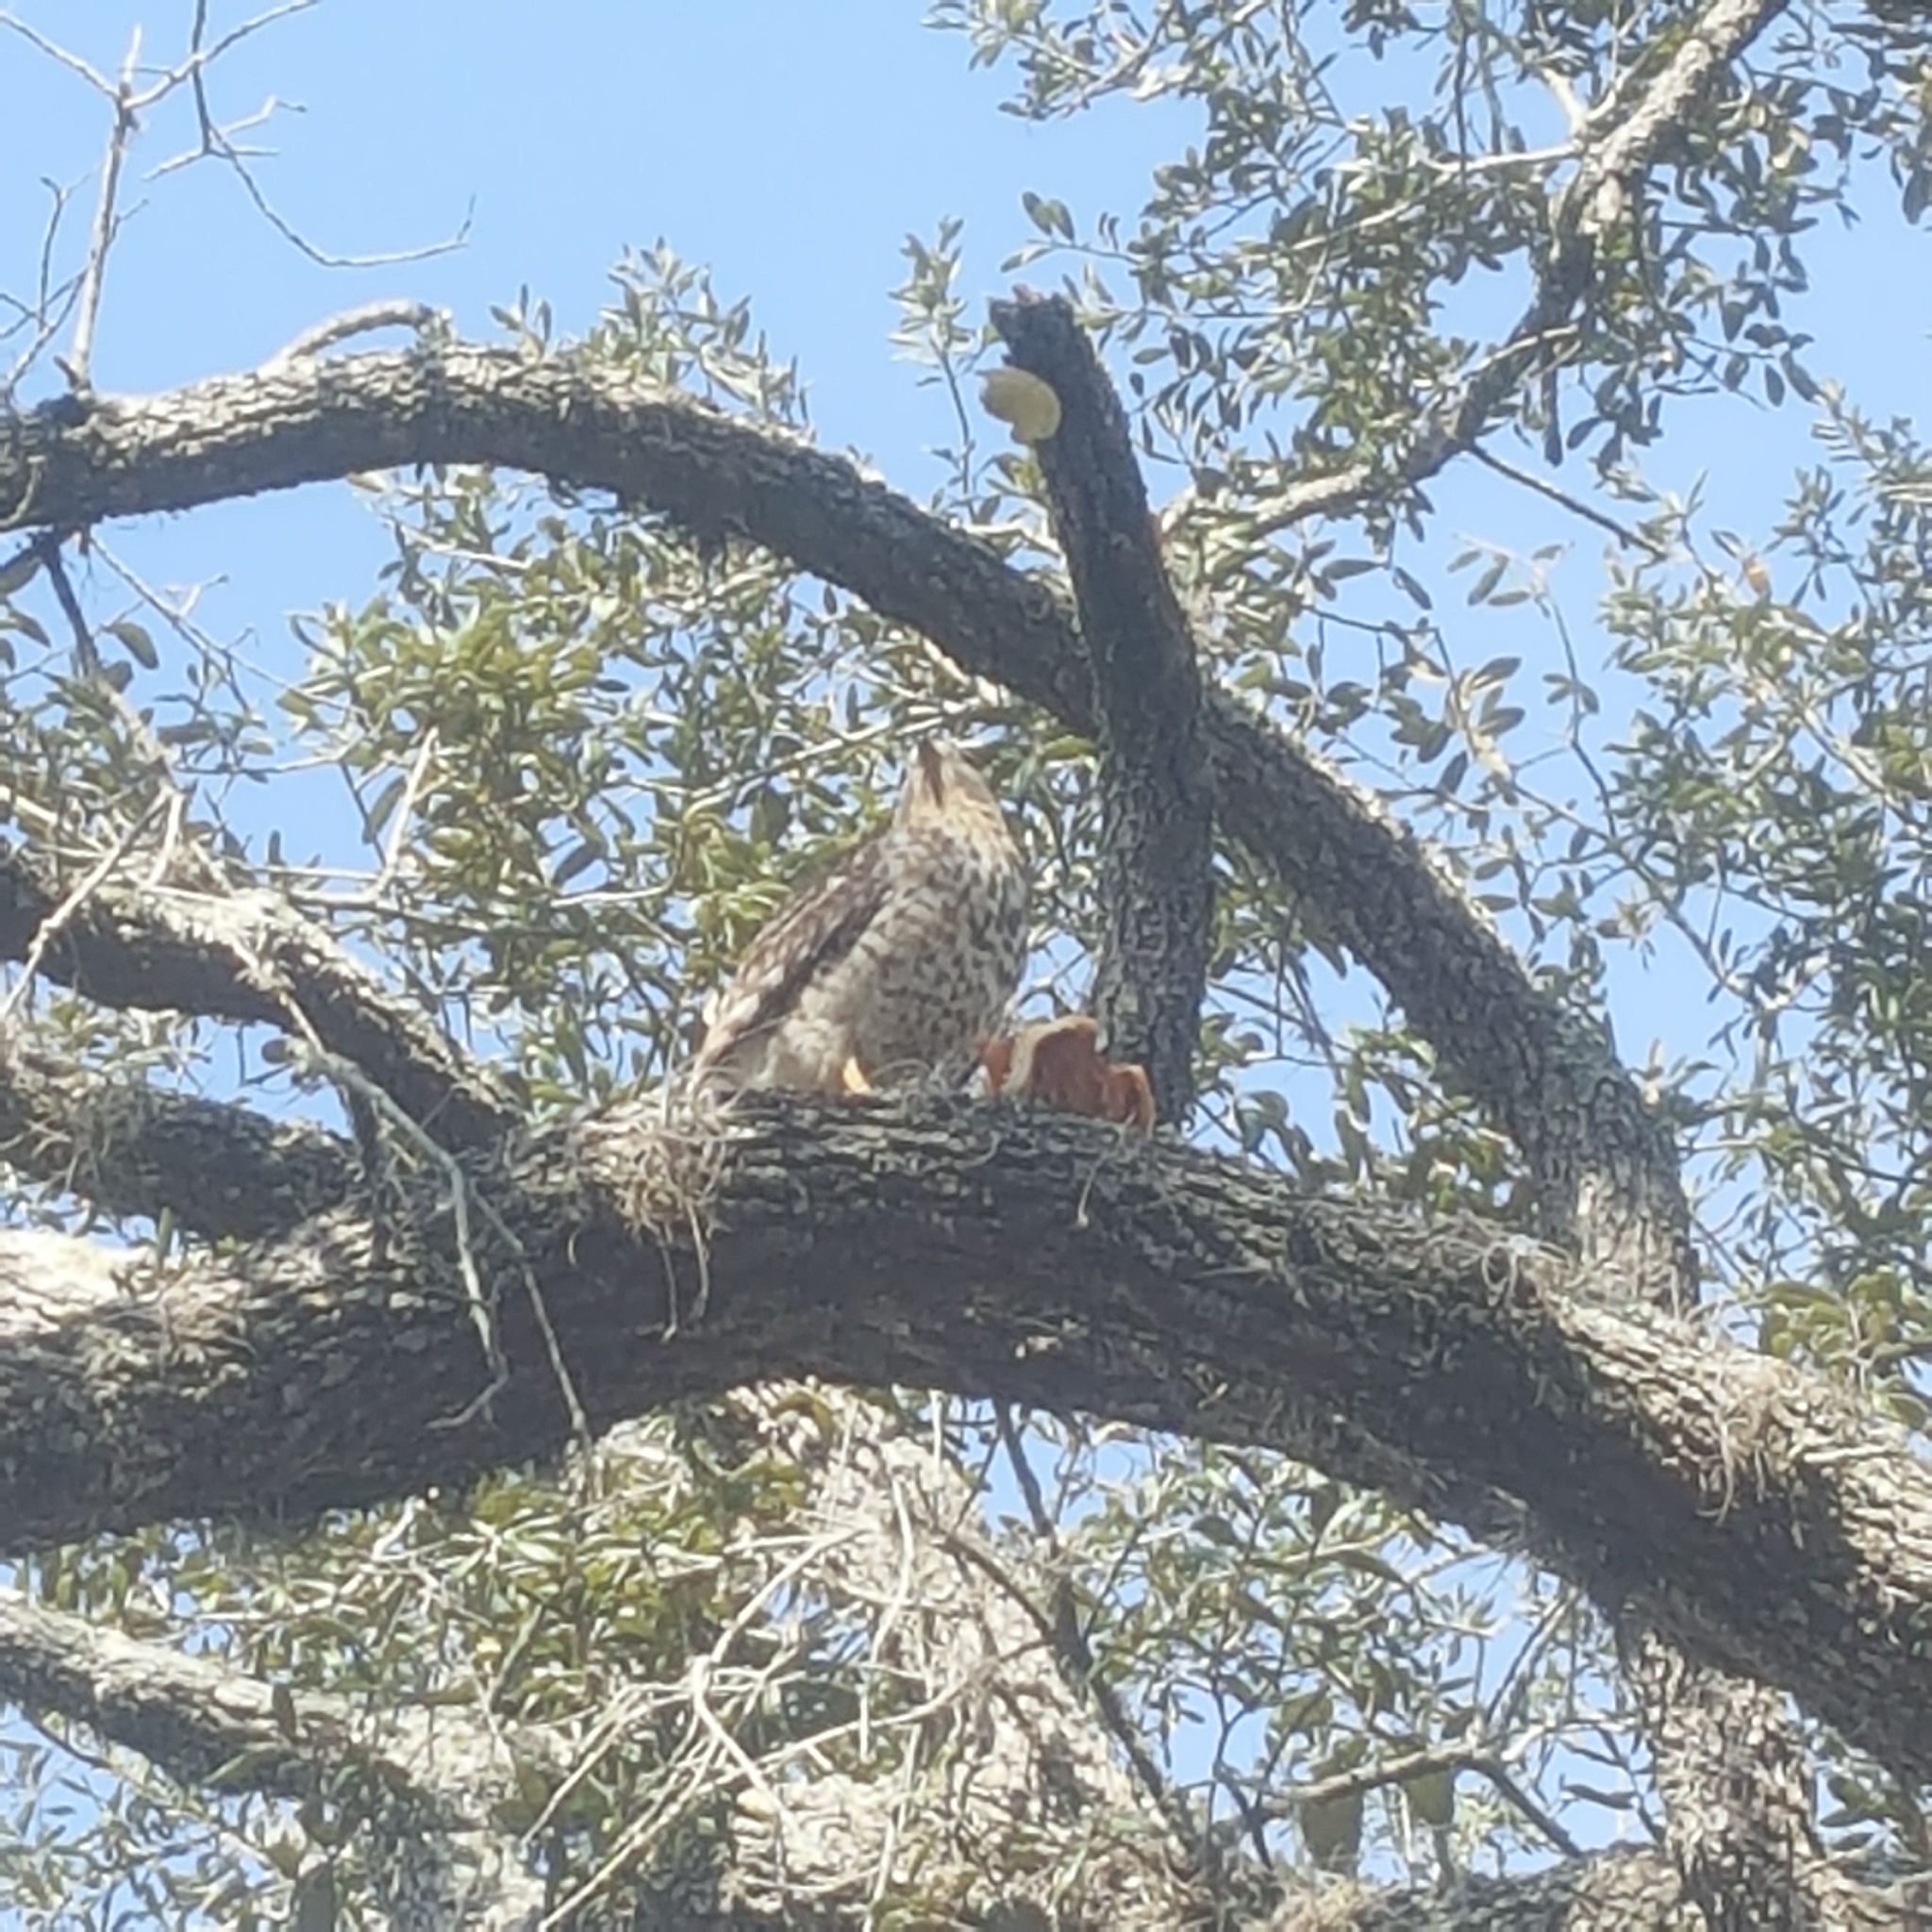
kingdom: Animalia
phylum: Chordata
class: Aves
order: Accipitriformes
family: Accipitridae
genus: Buteo
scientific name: Buteo lineatus
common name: Red-shouldered hawk
